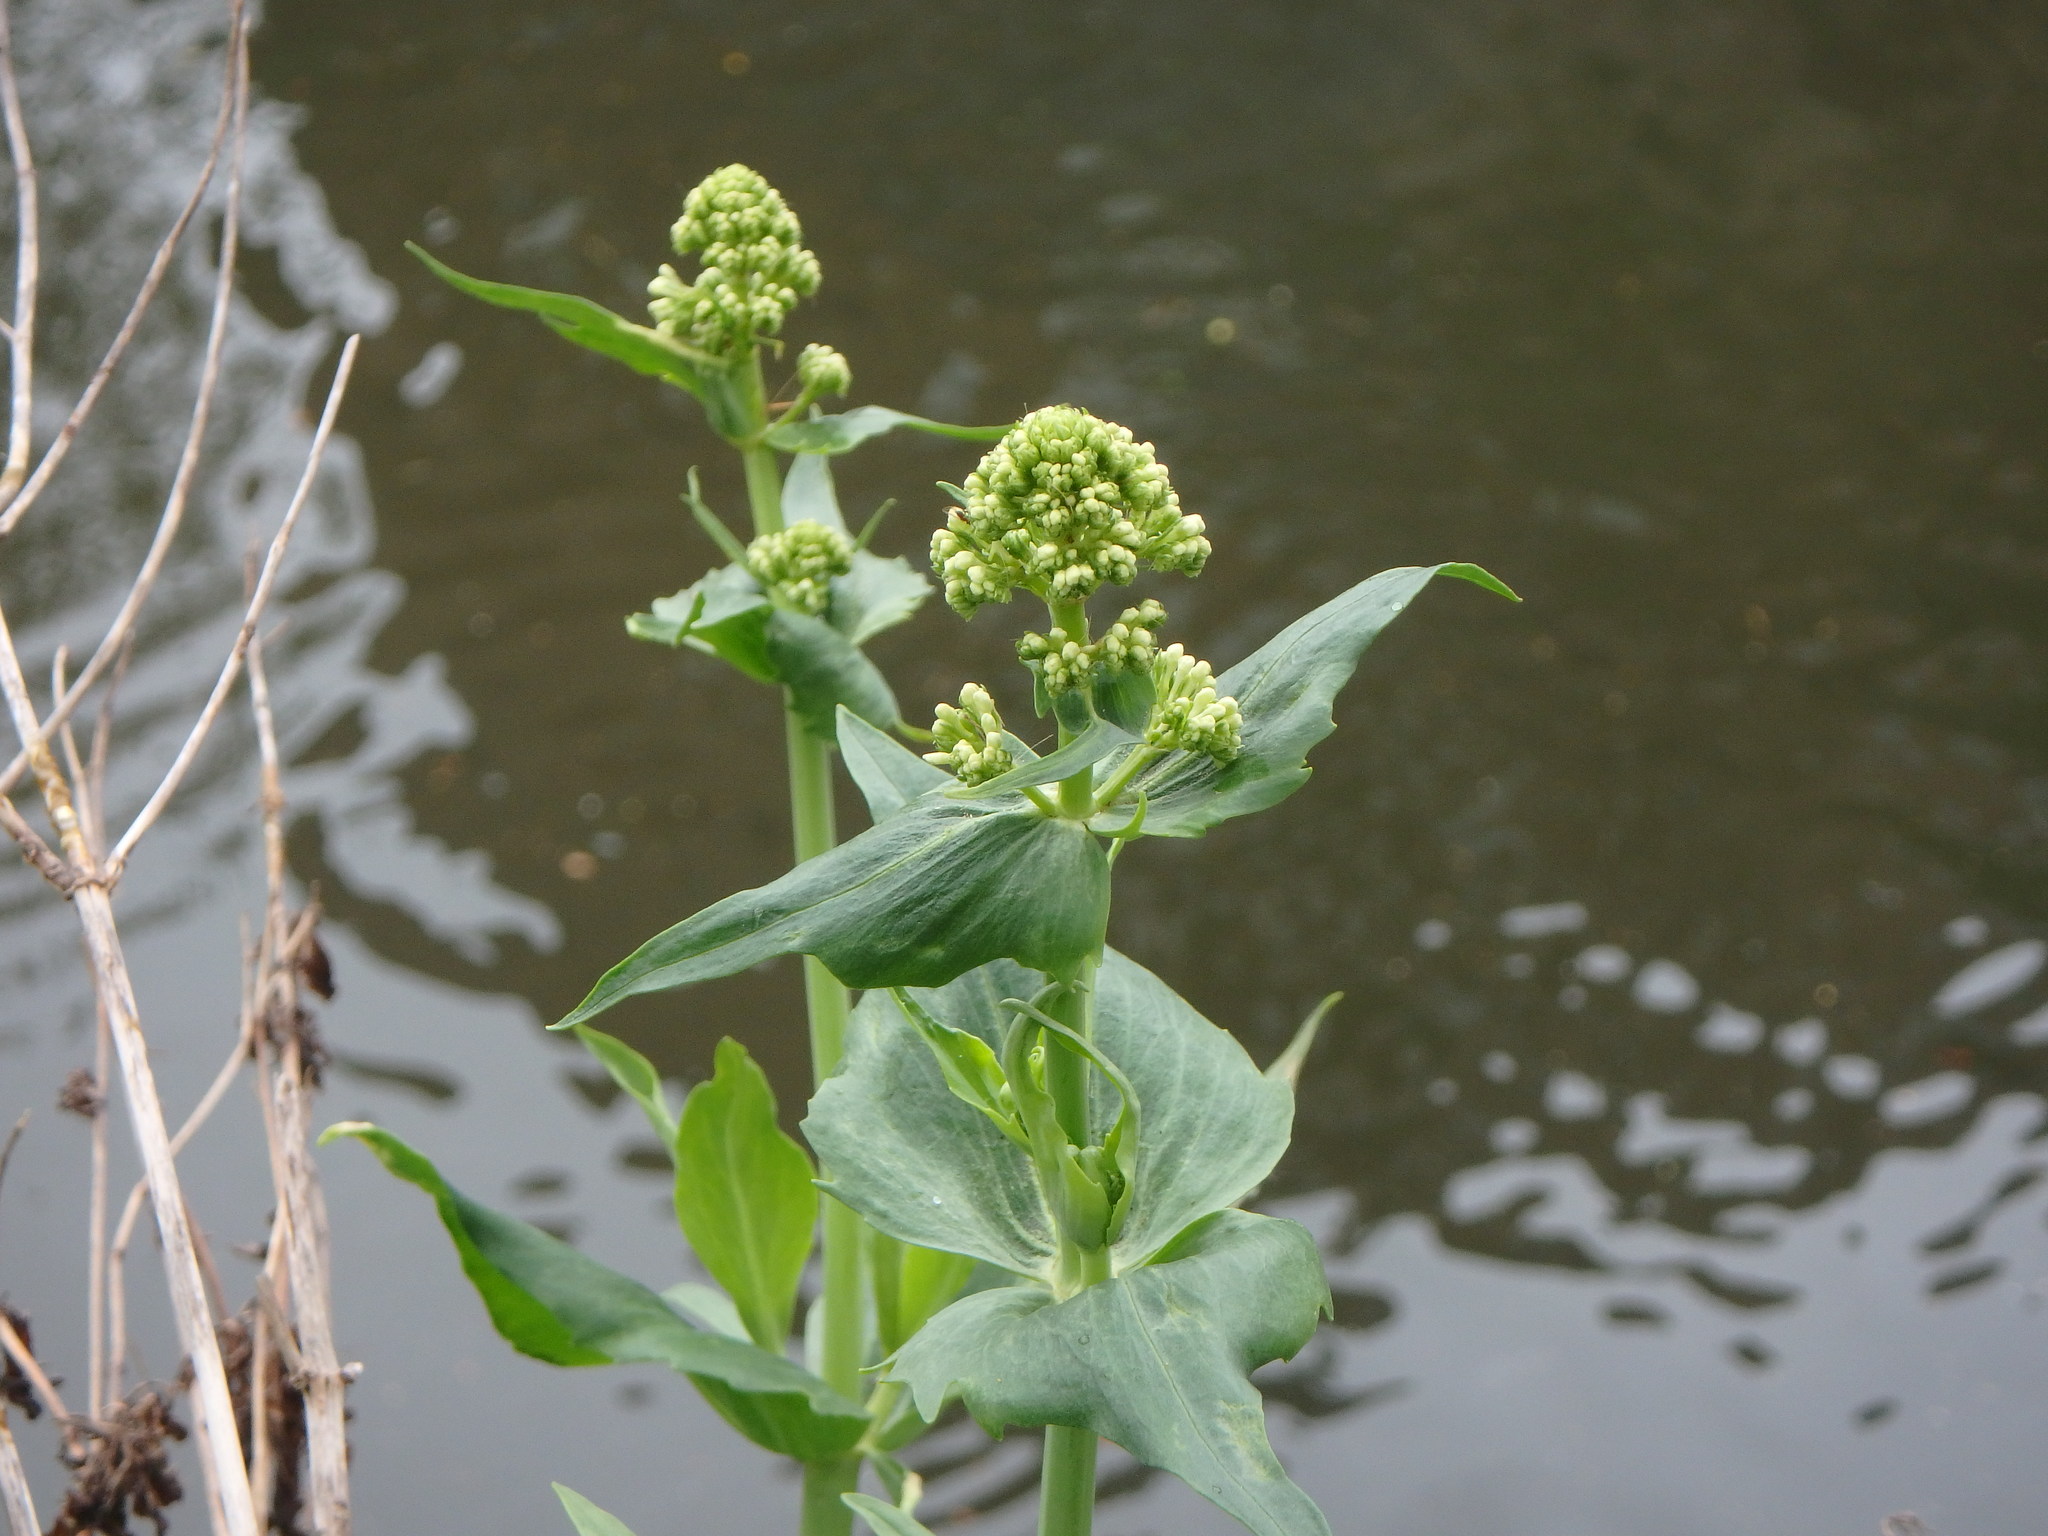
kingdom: Plantae
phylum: Tracheophyta
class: Magnoliopsida
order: Dipsacales
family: Caprifoliaceae
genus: Centranthus
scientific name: Centranthus ruber
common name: Red valerian
